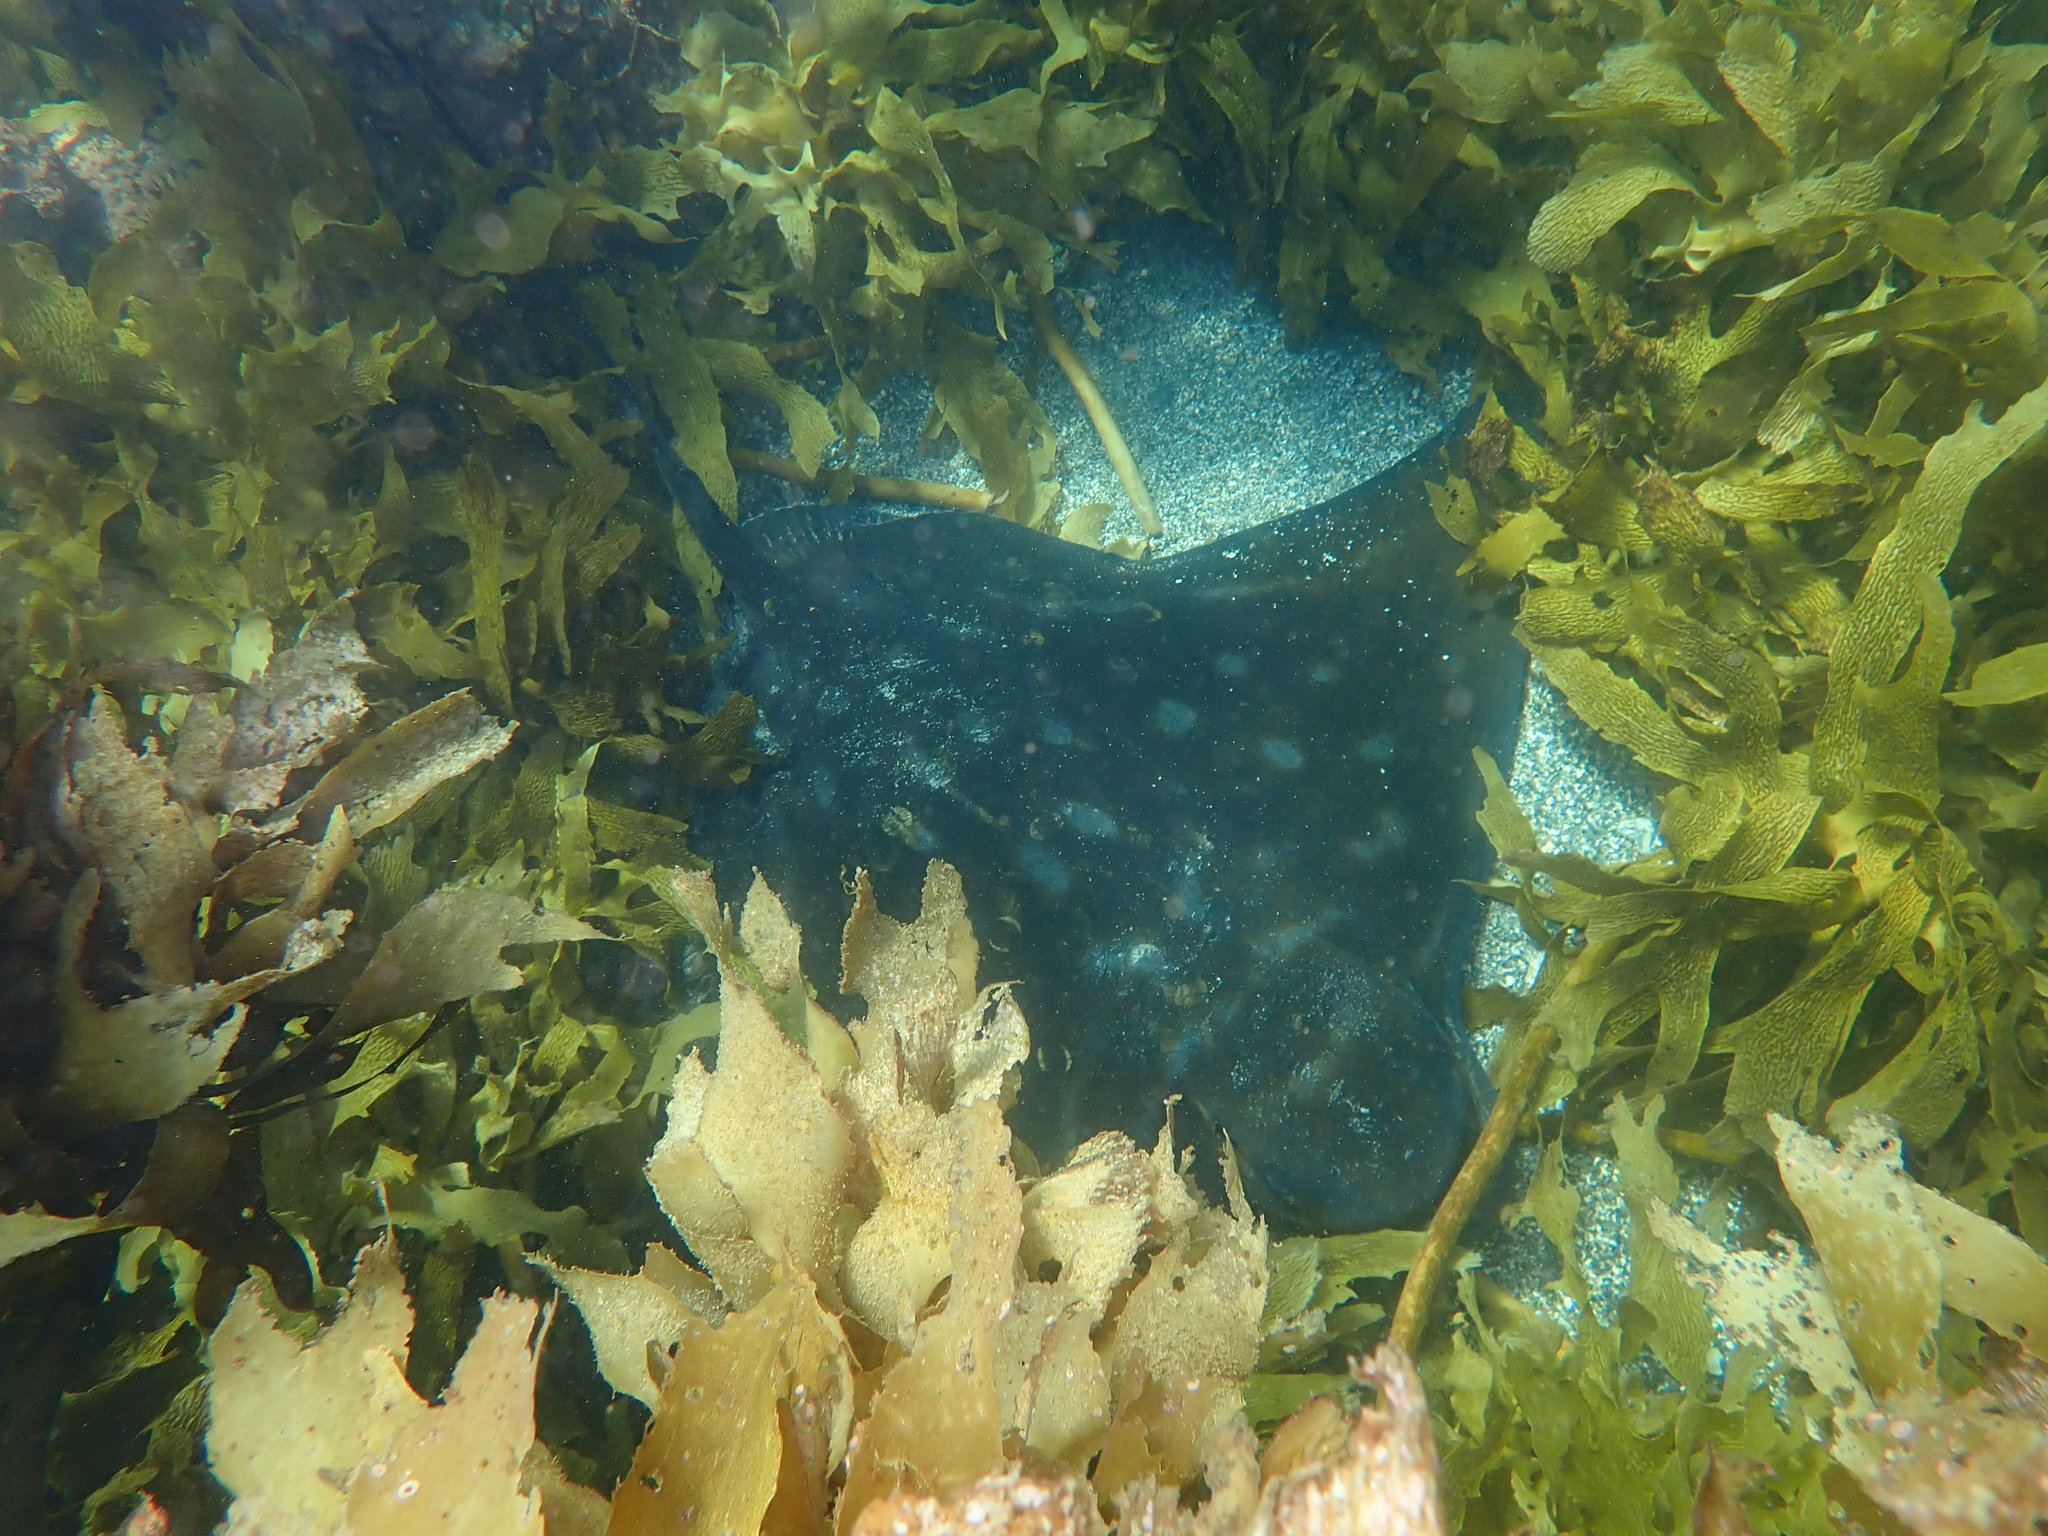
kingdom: Animalia
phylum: Chordata
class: Elasmobranchii
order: Myliobatiformes
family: Myliobatidae
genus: Myliobatis
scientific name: Myliobatis tenuicaudatus
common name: Eagle ray
